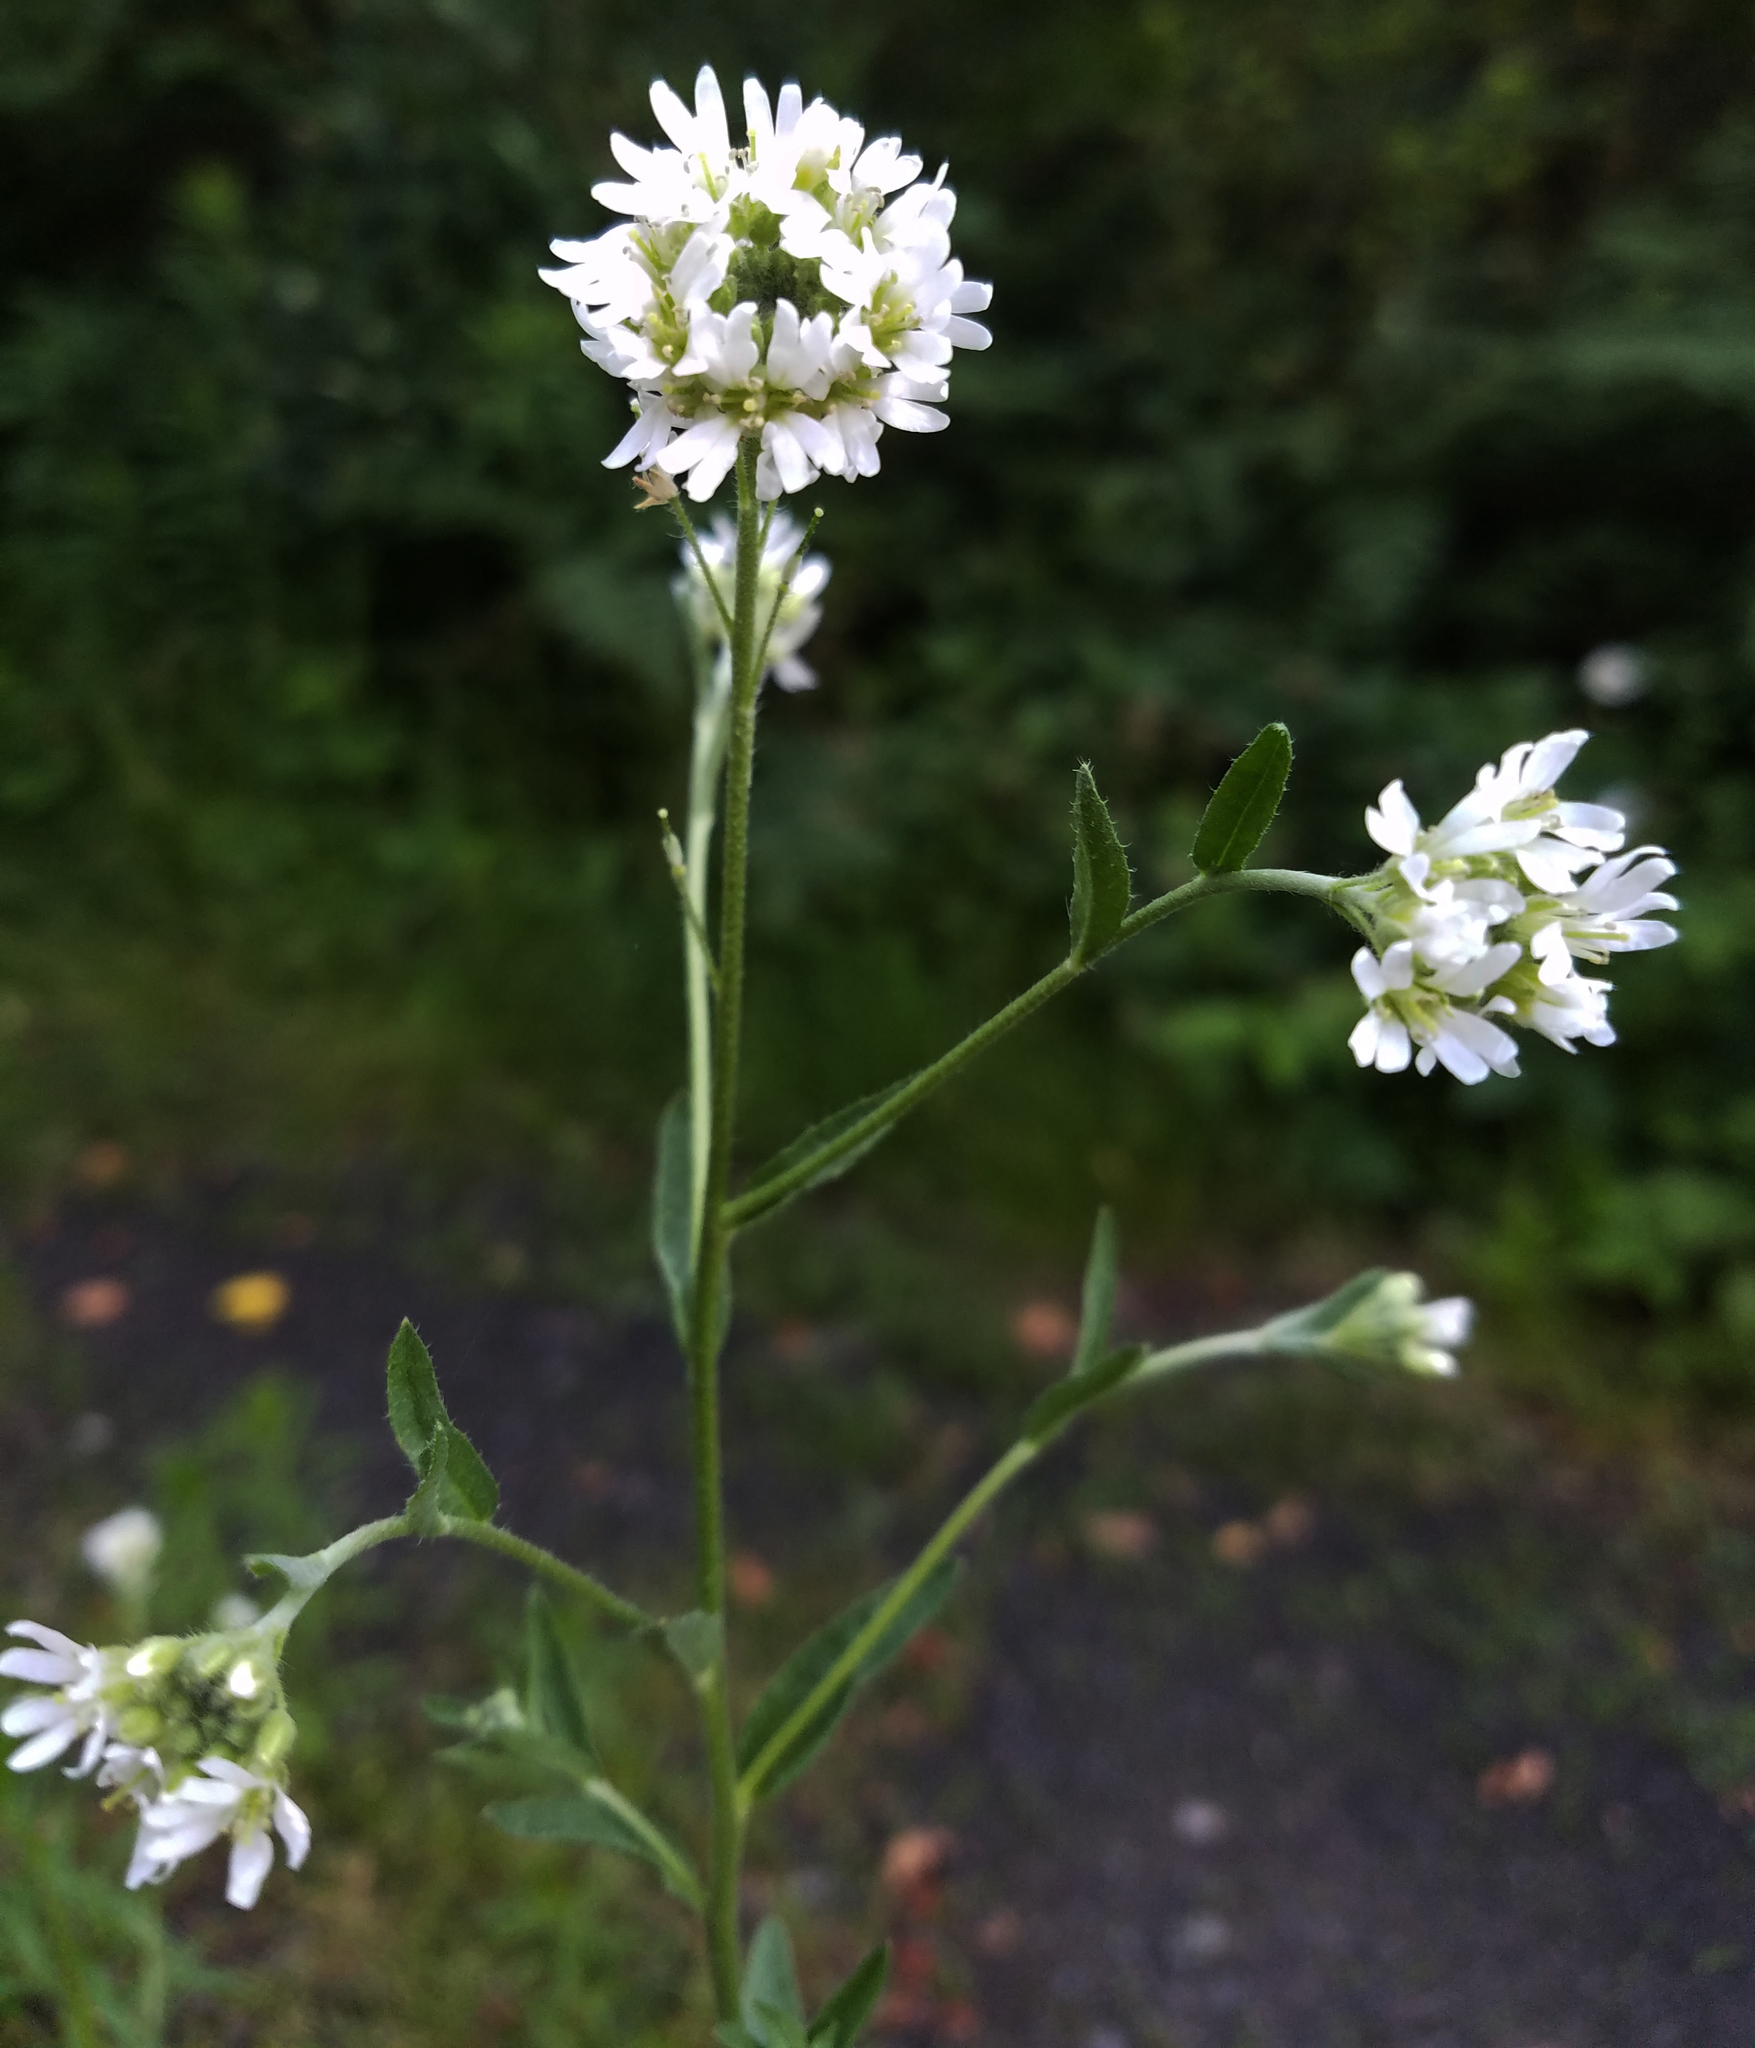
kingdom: Plantae
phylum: Tracheophyta
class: Magnoliopsida
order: Brassicales
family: Brassicaceae
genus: Berteroa
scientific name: Berteroa incana
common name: Hoary alison
